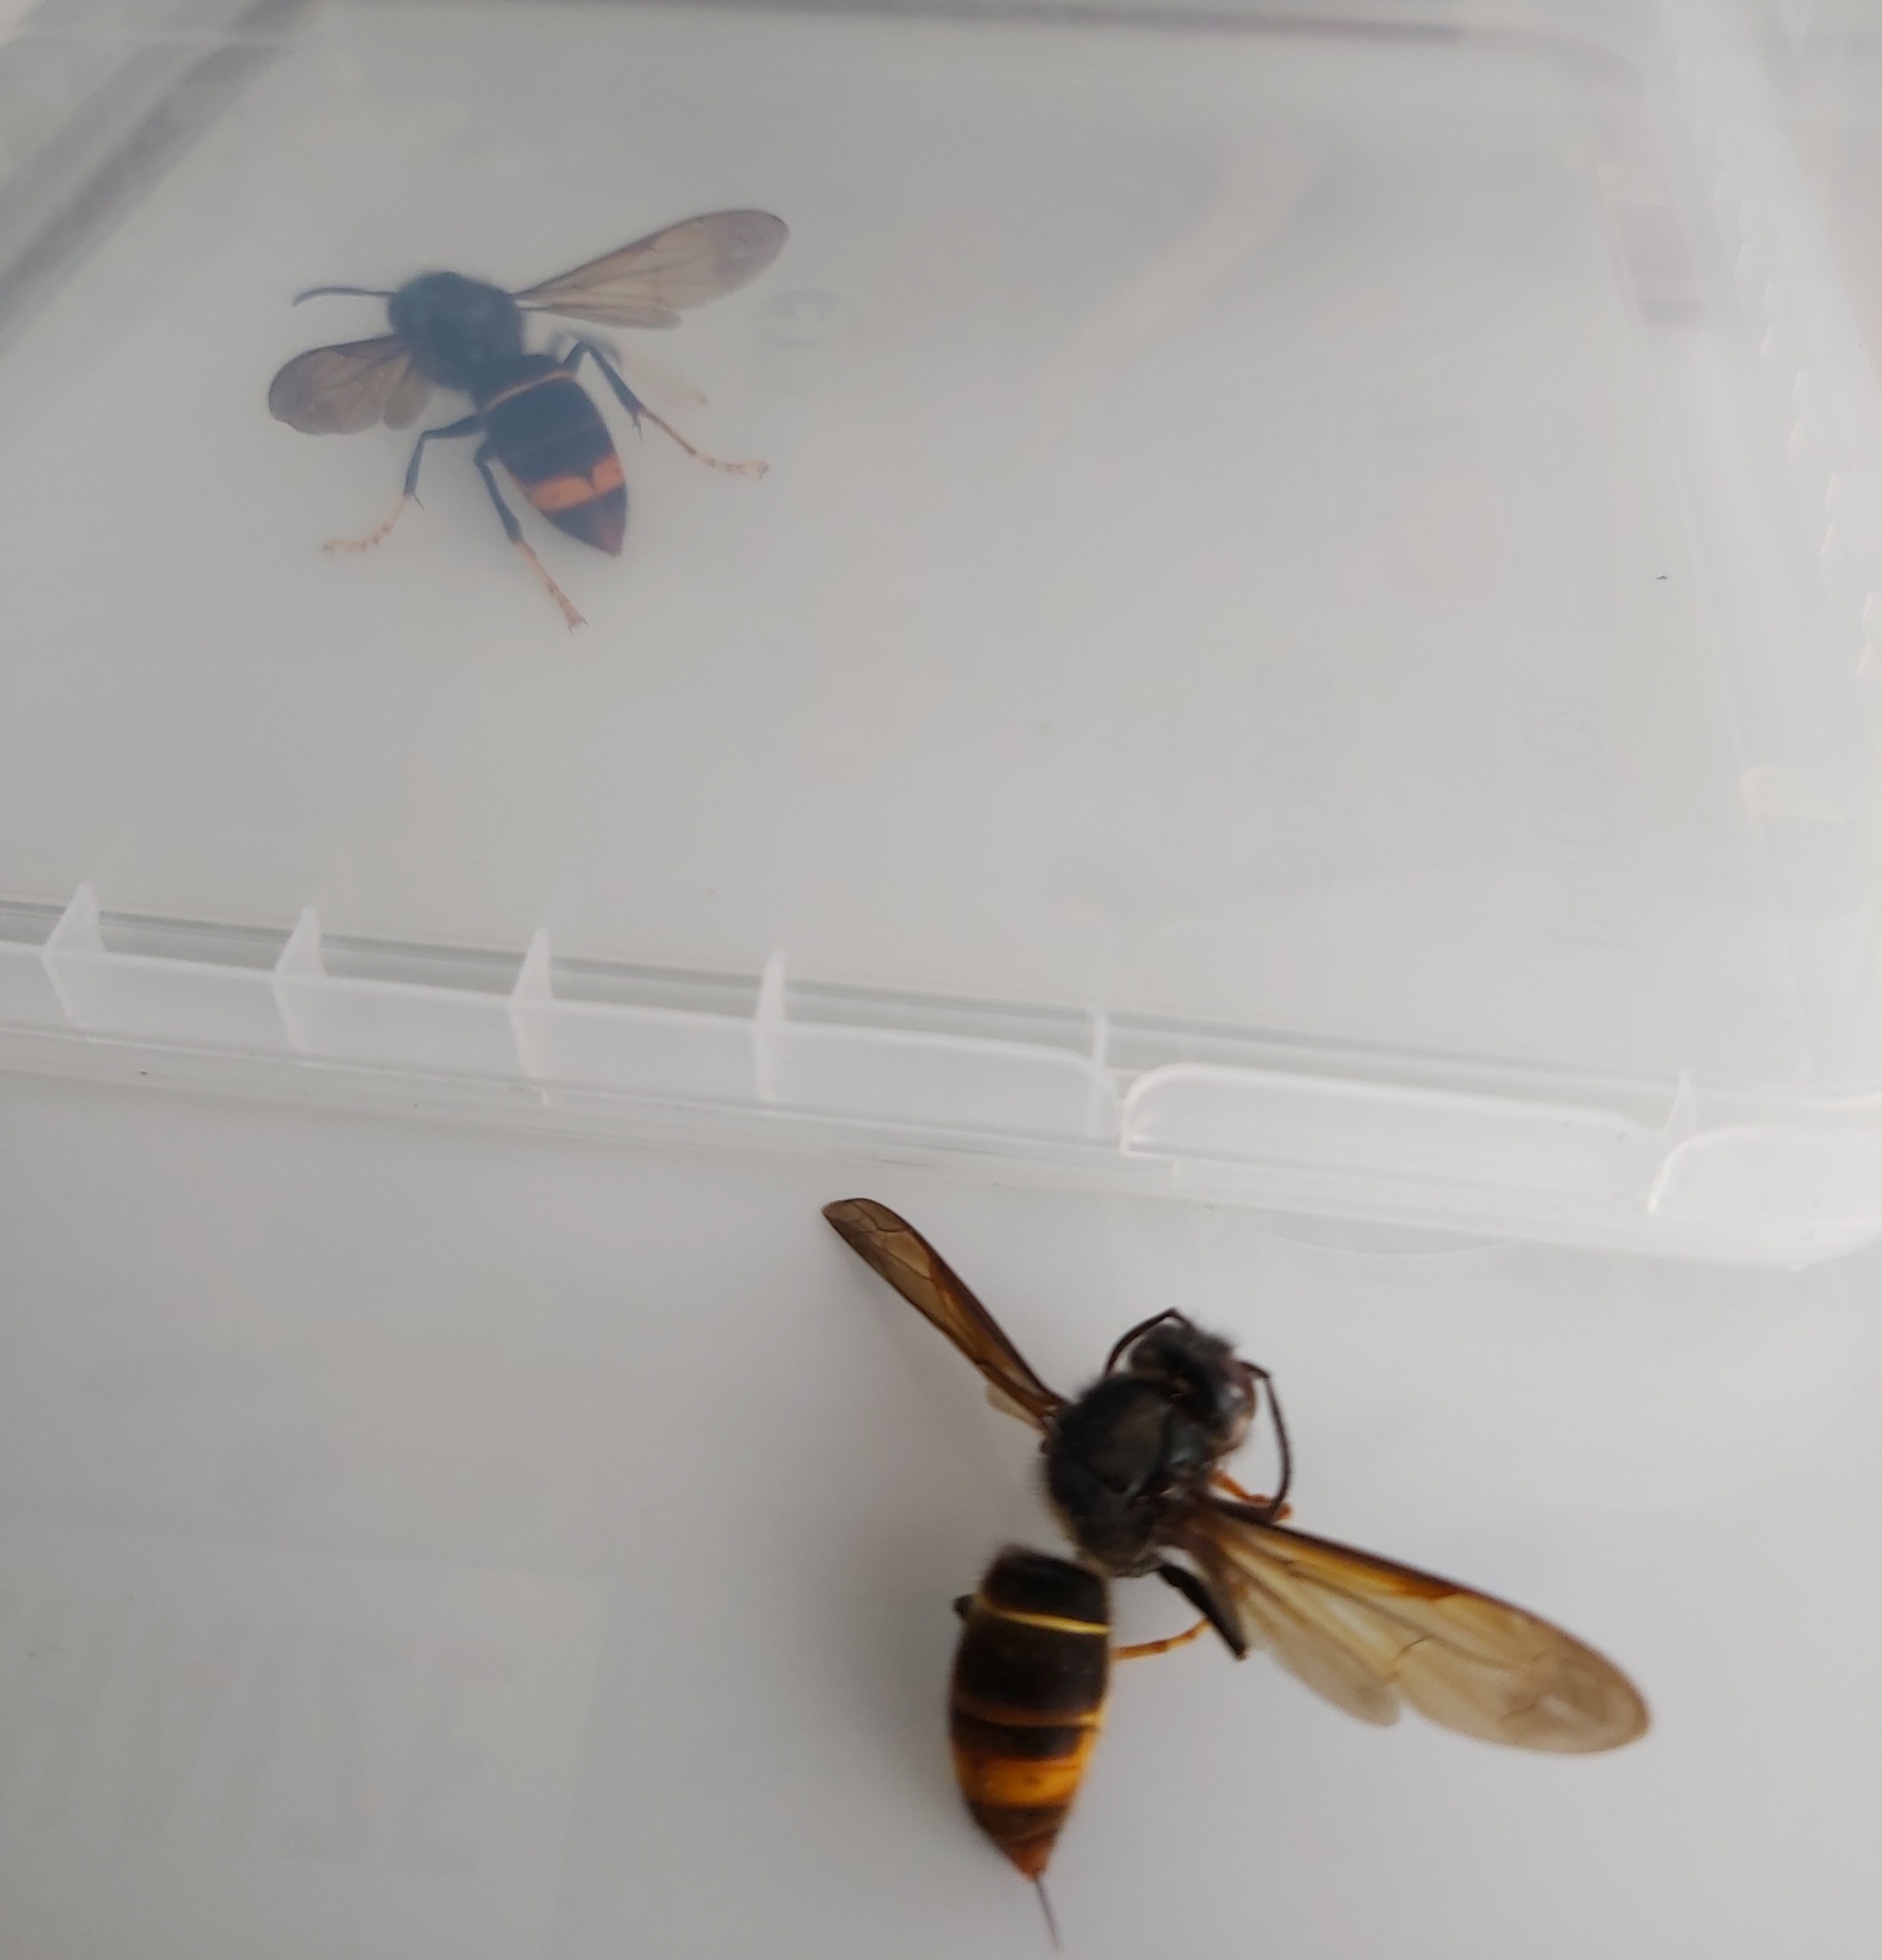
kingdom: Animalia
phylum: Arthropoda
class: Insecta
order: Hymenoptera
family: Vespidae
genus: Vespa
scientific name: Vespa velutina
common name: Asian hornet
